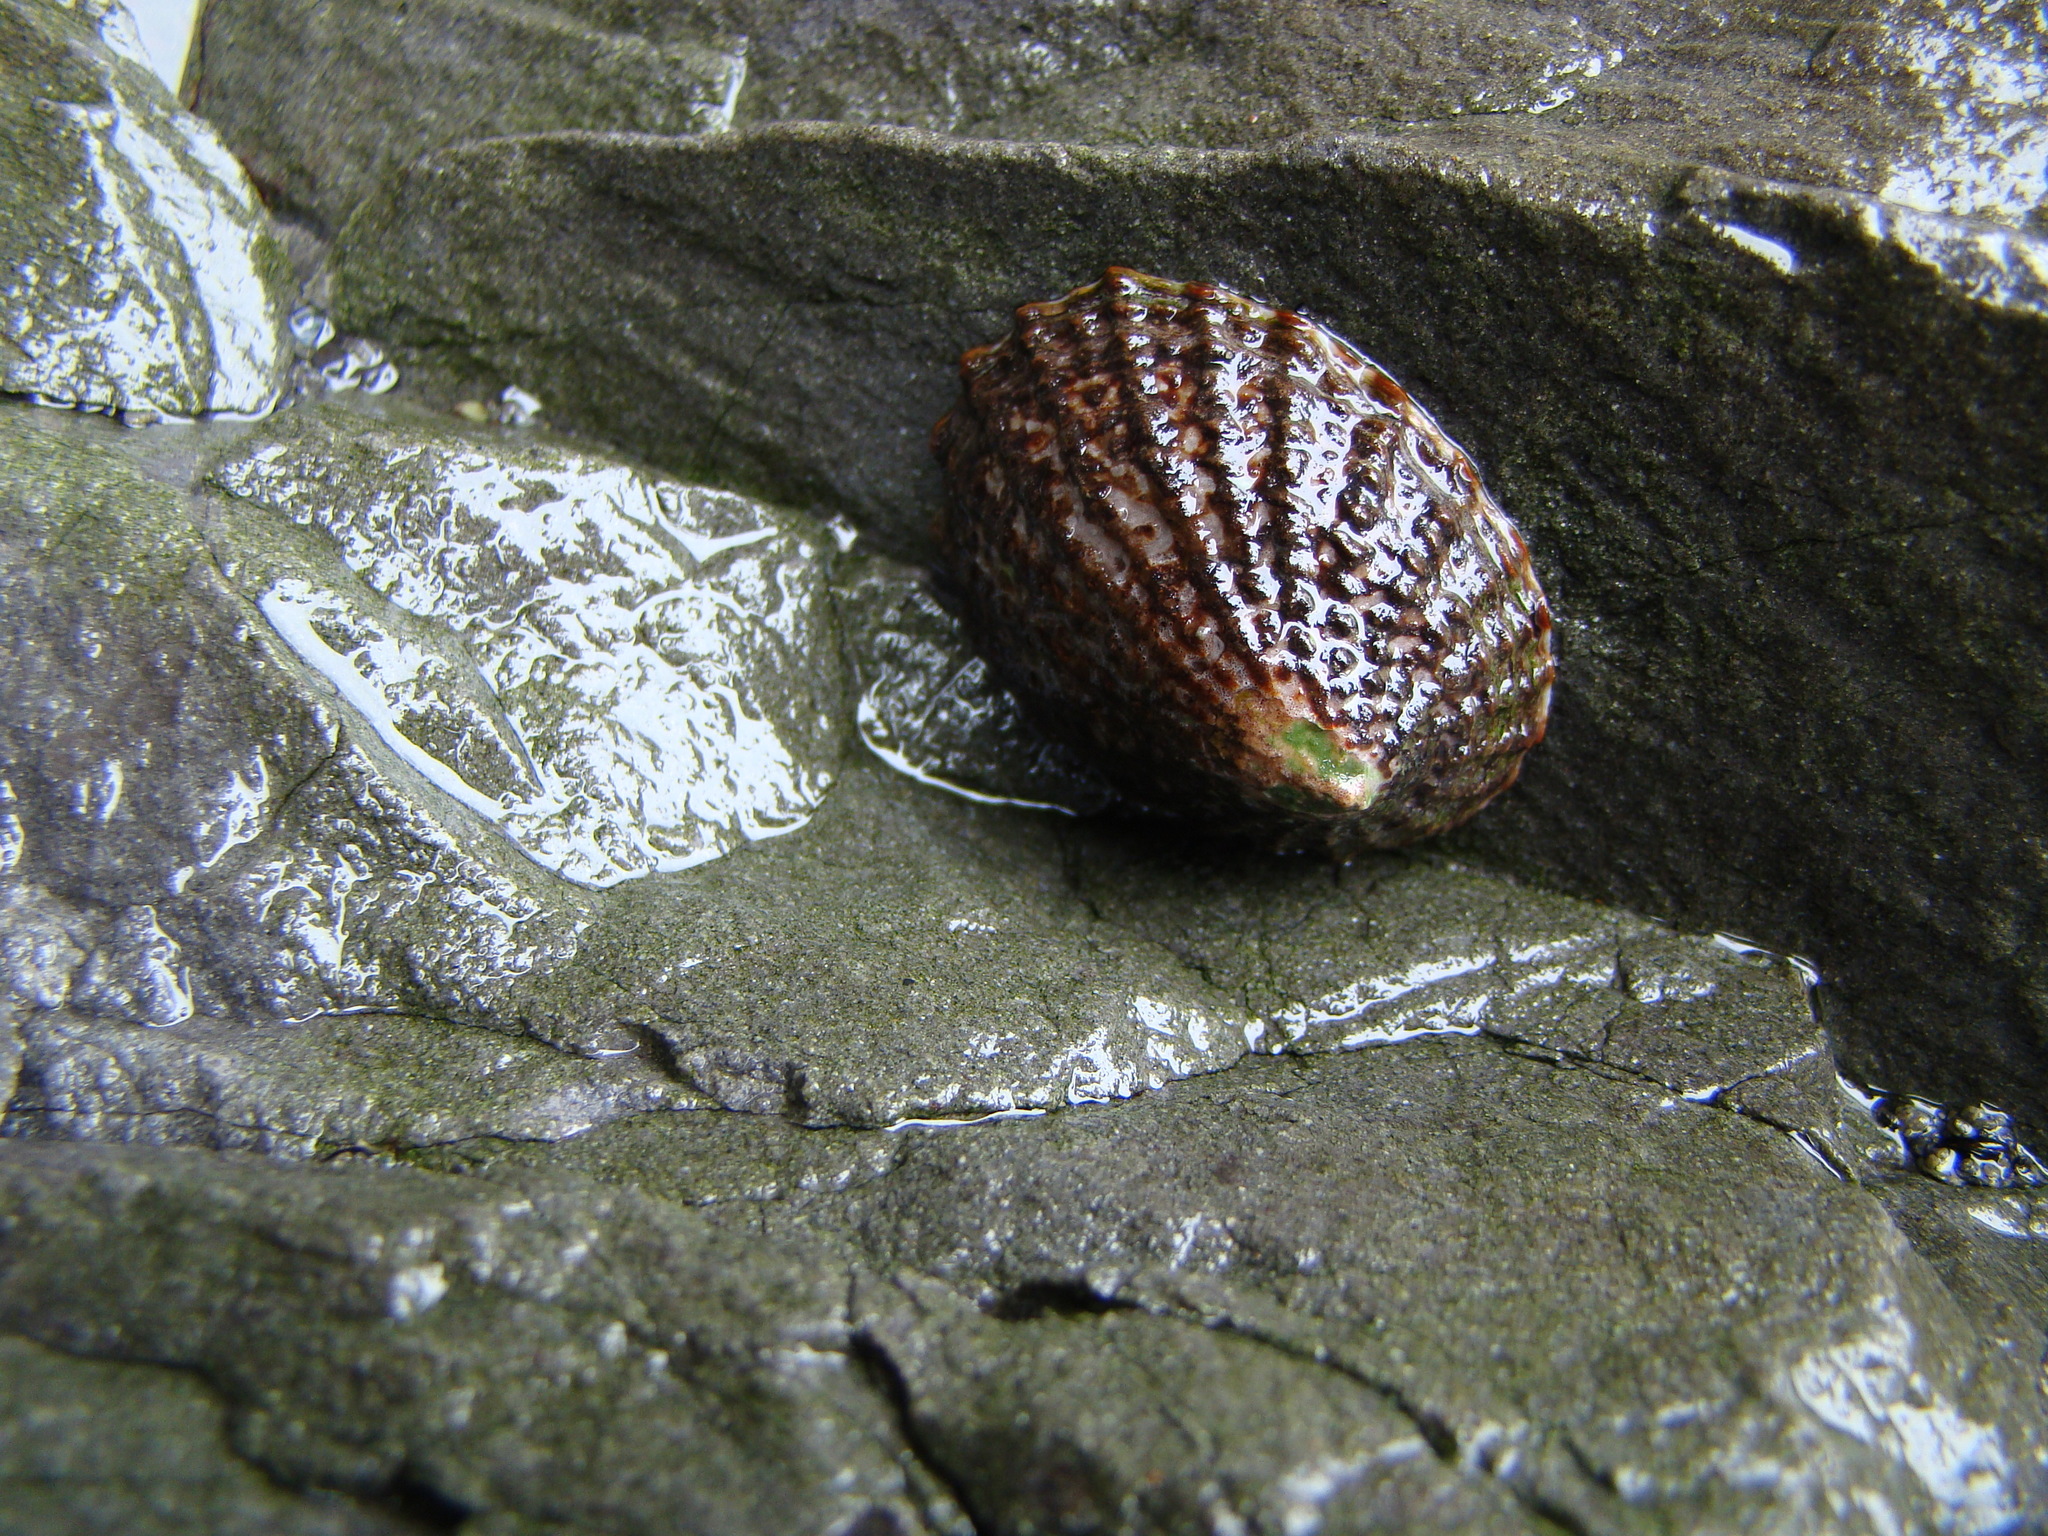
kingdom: Animalia
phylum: Mollusca
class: Gastropoda
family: Nacellidae
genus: Cellana
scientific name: Cellana denticulata
